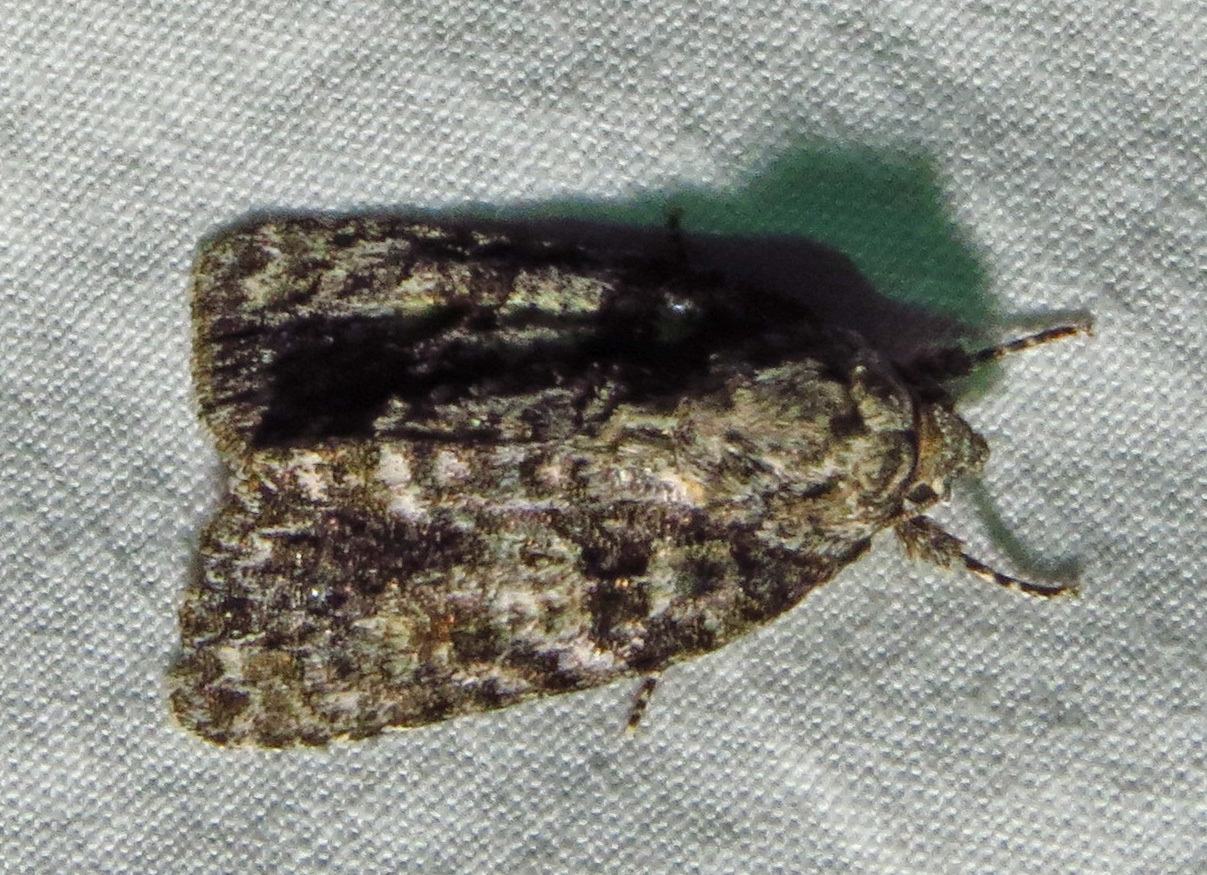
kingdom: Animalia
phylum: Arthropoda
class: Insecta
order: Lepidoptera
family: Noctuidae
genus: Acronicta
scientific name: Acronicta increta
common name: Eclipsed oak dagger
